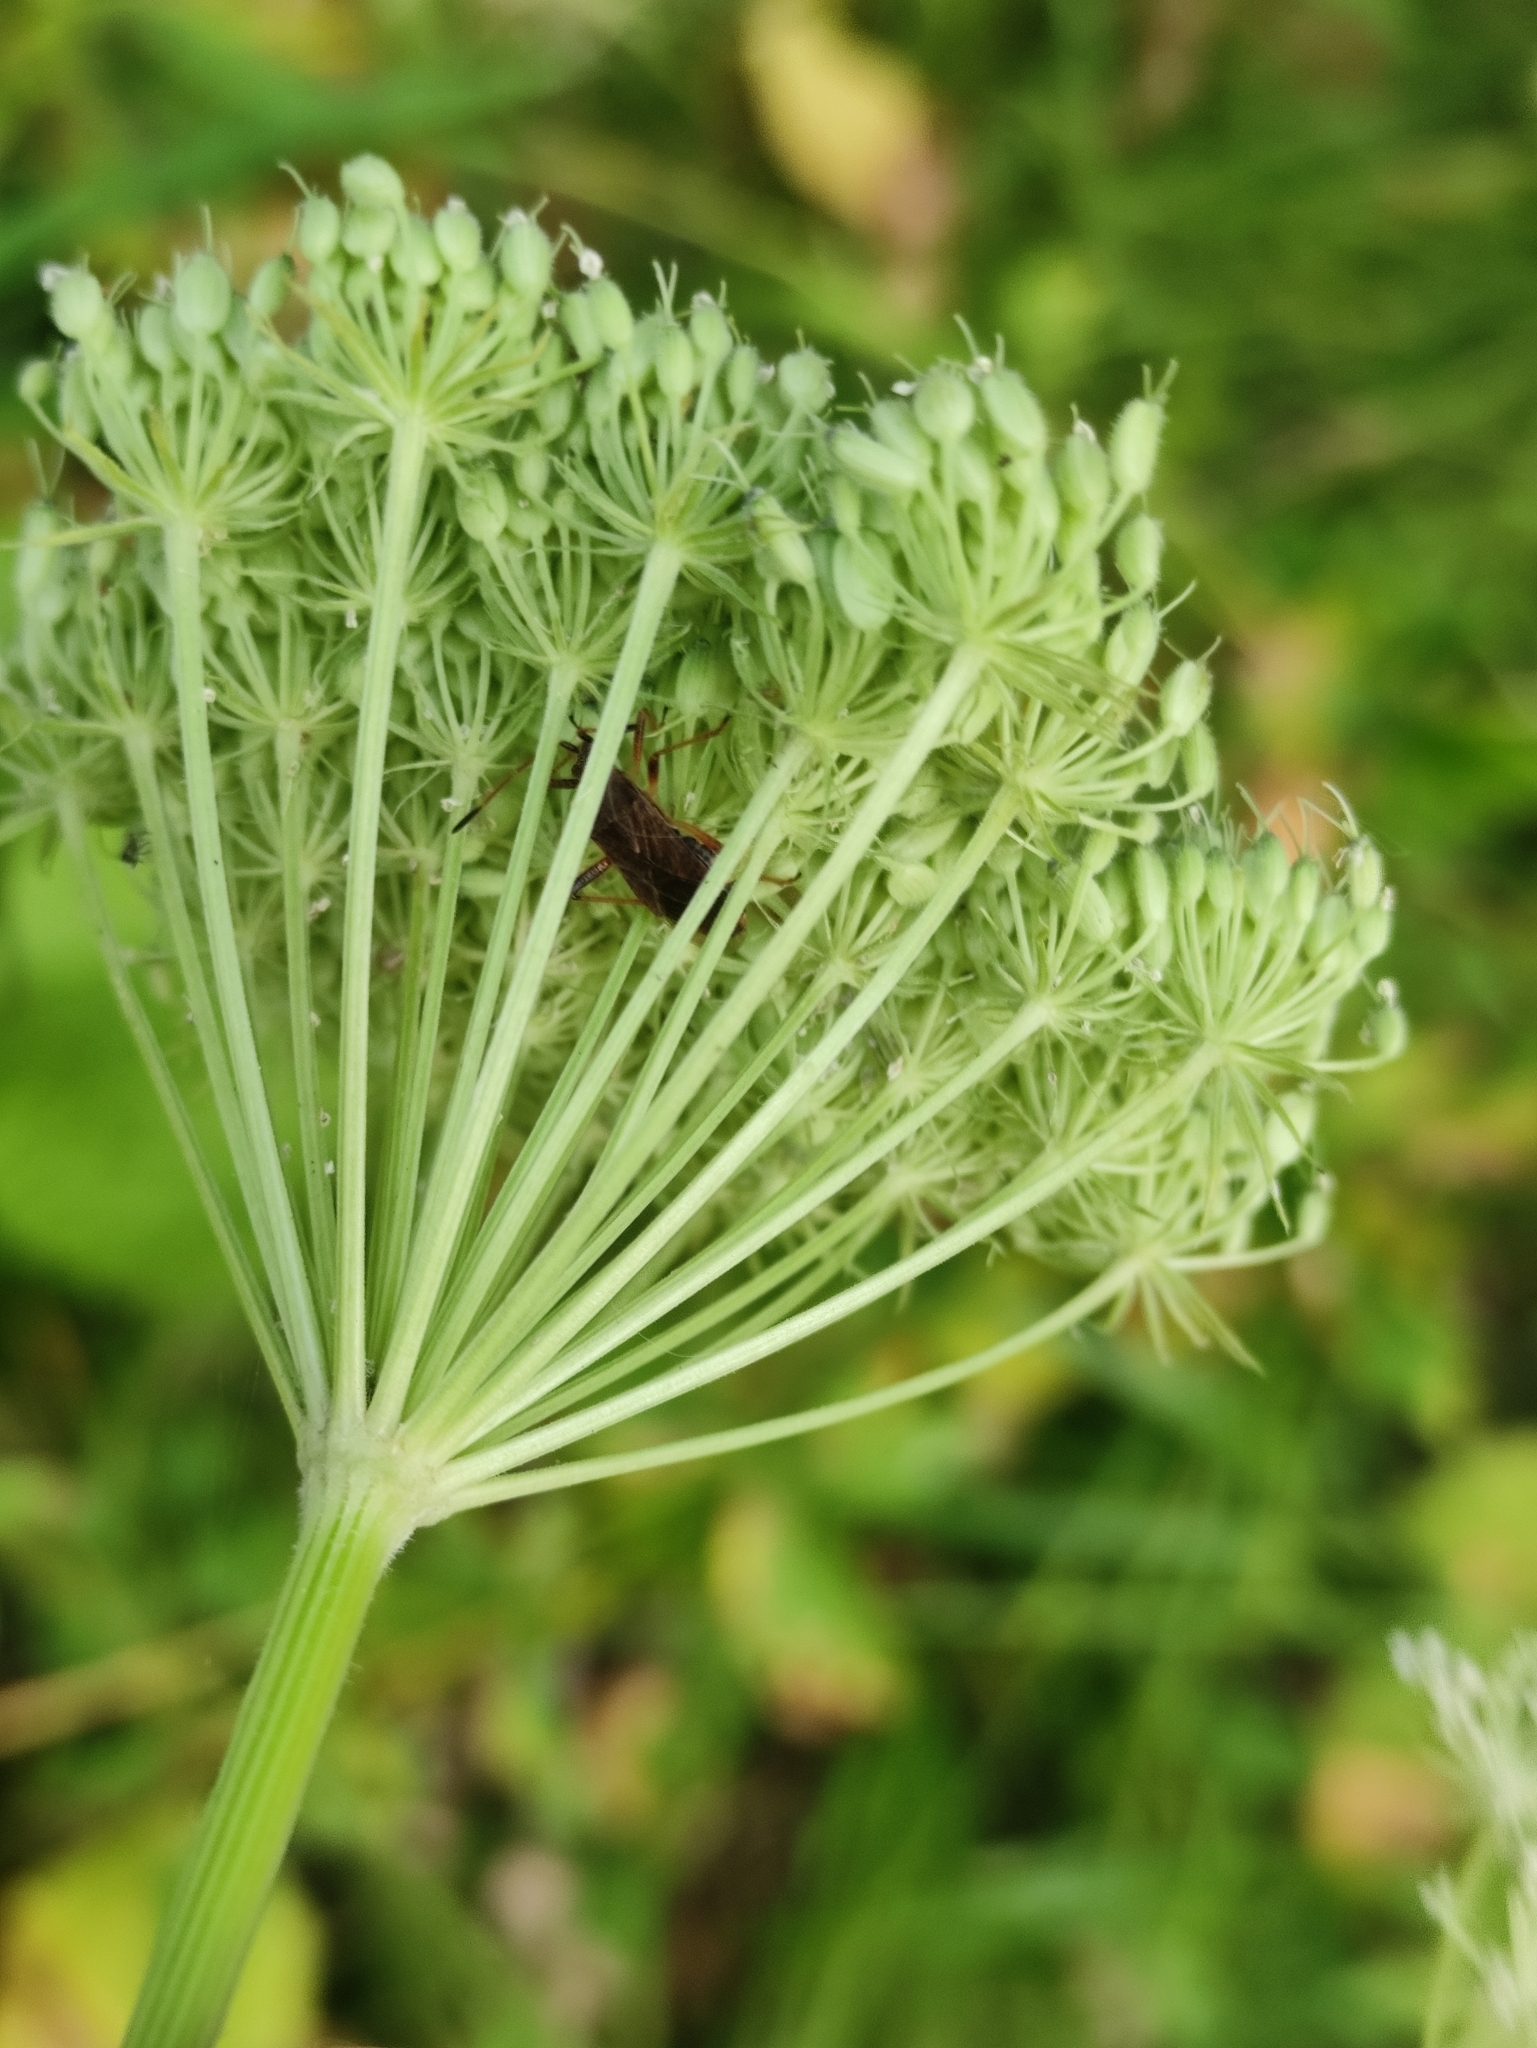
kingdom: Plantae
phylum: Tracheophyta
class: Magnoliopsida
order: Apiales
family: Apiaceae
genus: Seseli
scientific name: Seseli condensatum
